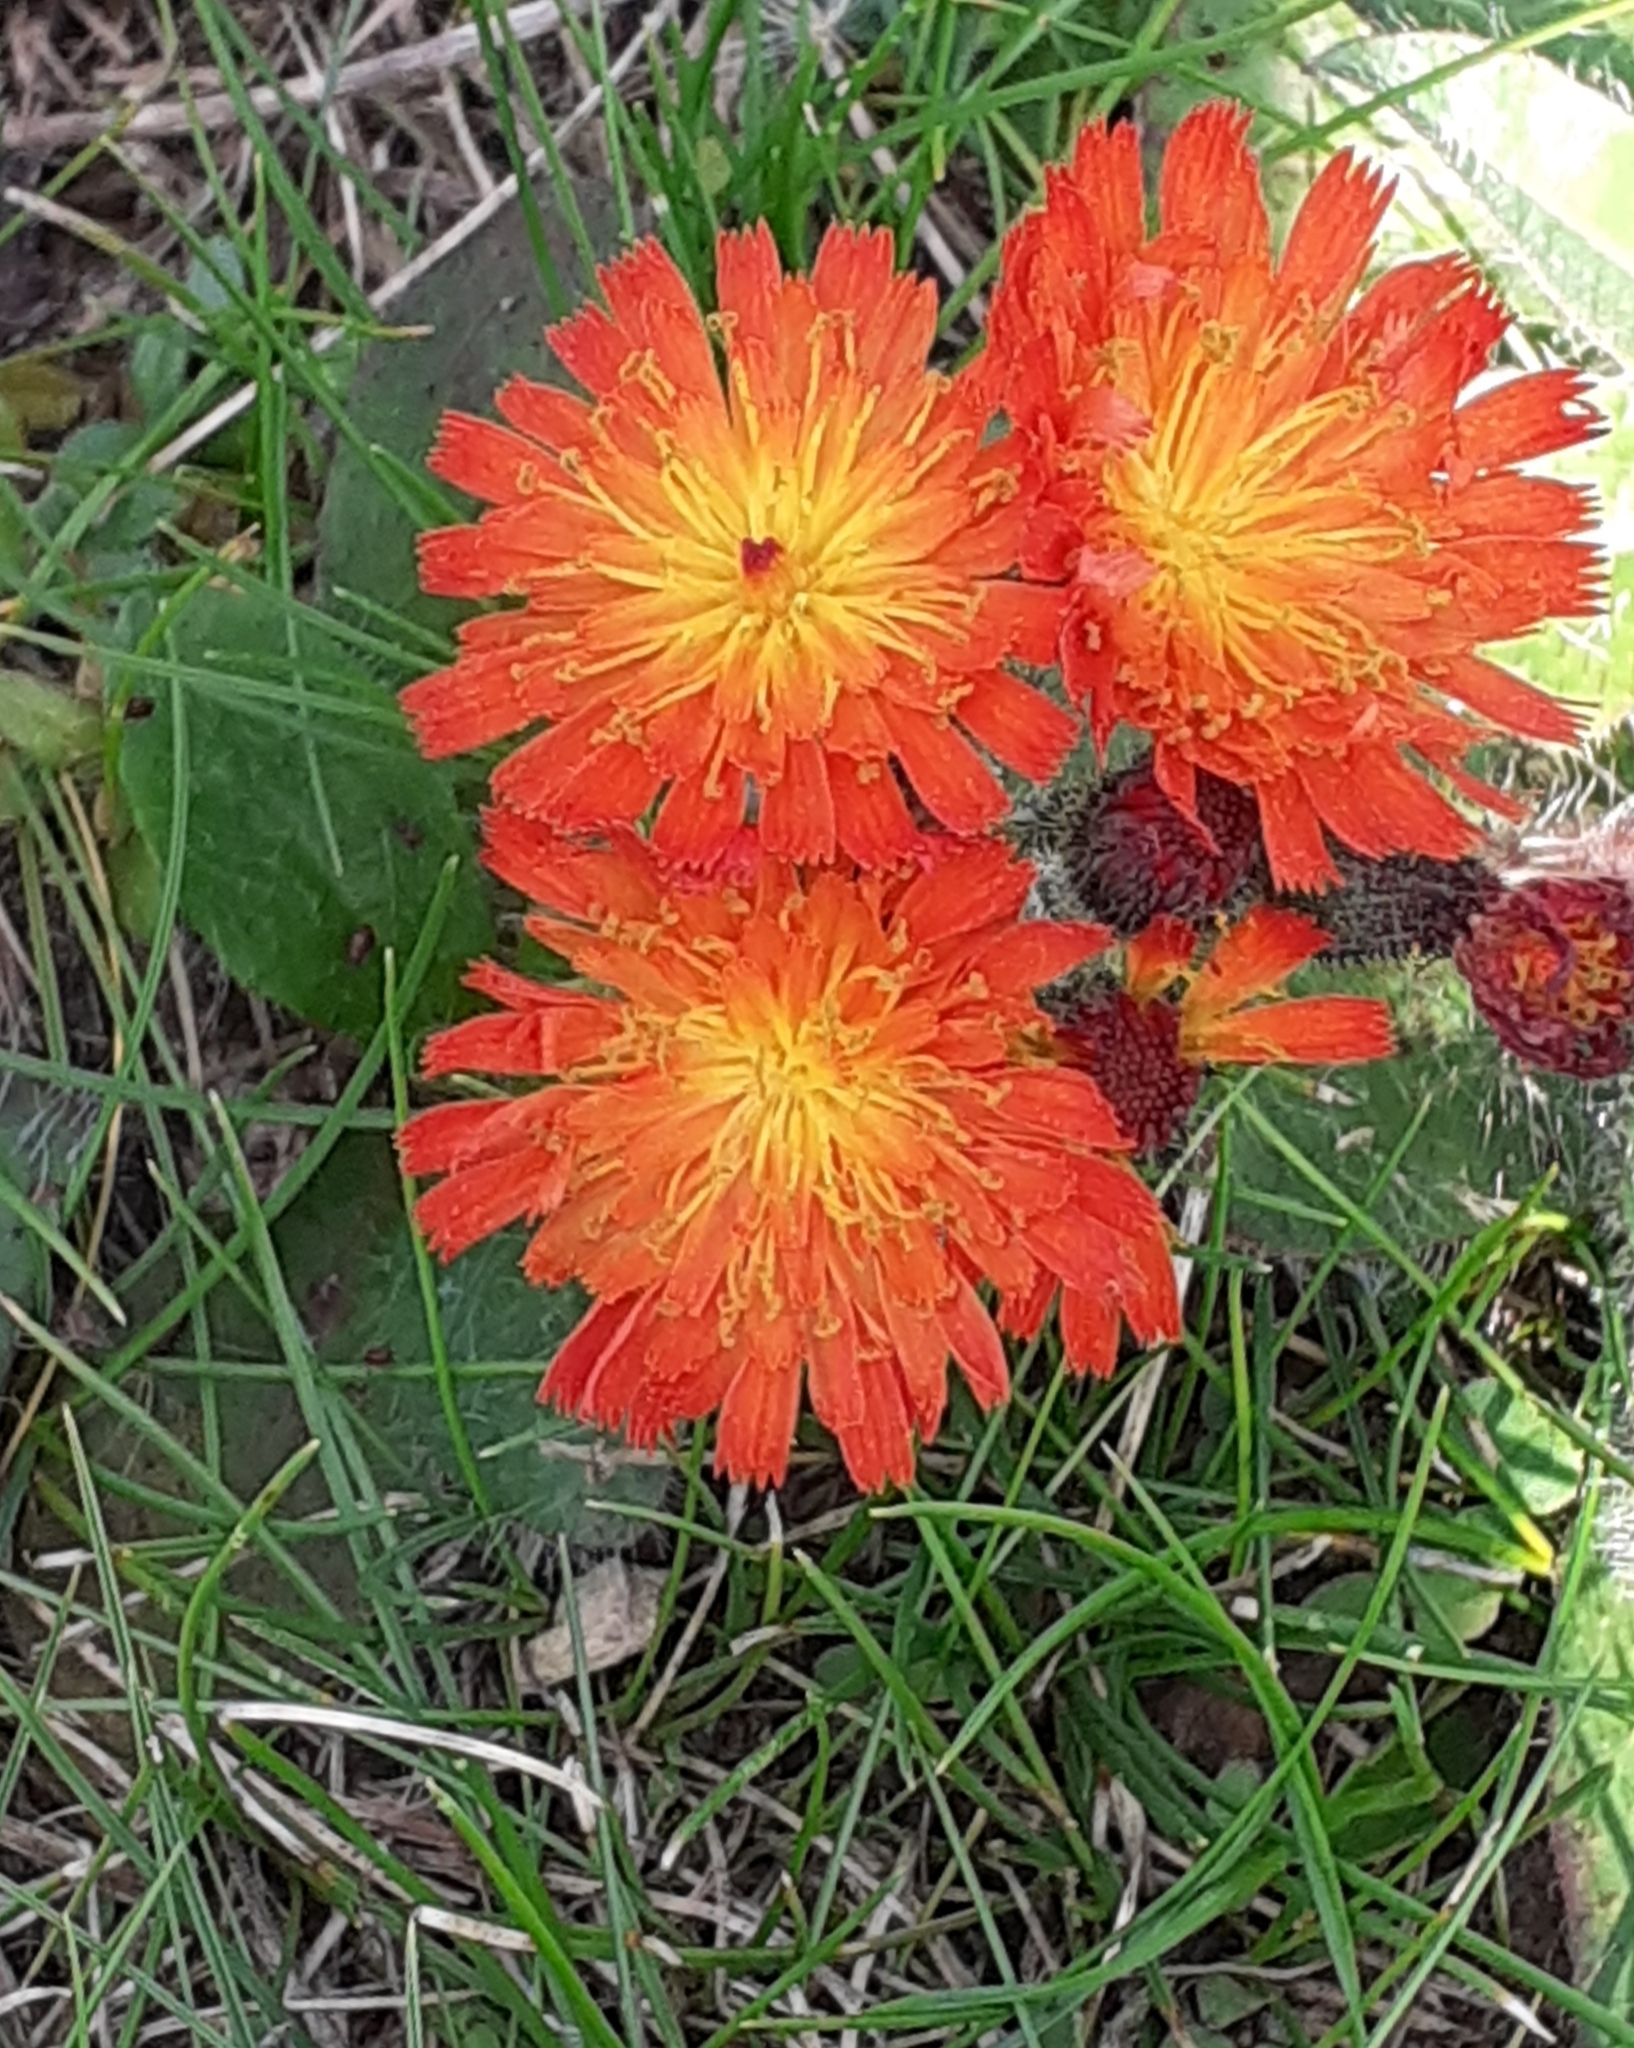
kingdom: Plantae
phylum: Tracheophyta
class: Magnoliopsida
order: Asterales
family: Asteraceae
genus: Pilosella
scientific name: Pilosella aurantiaca
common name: Fox-and-cubs
